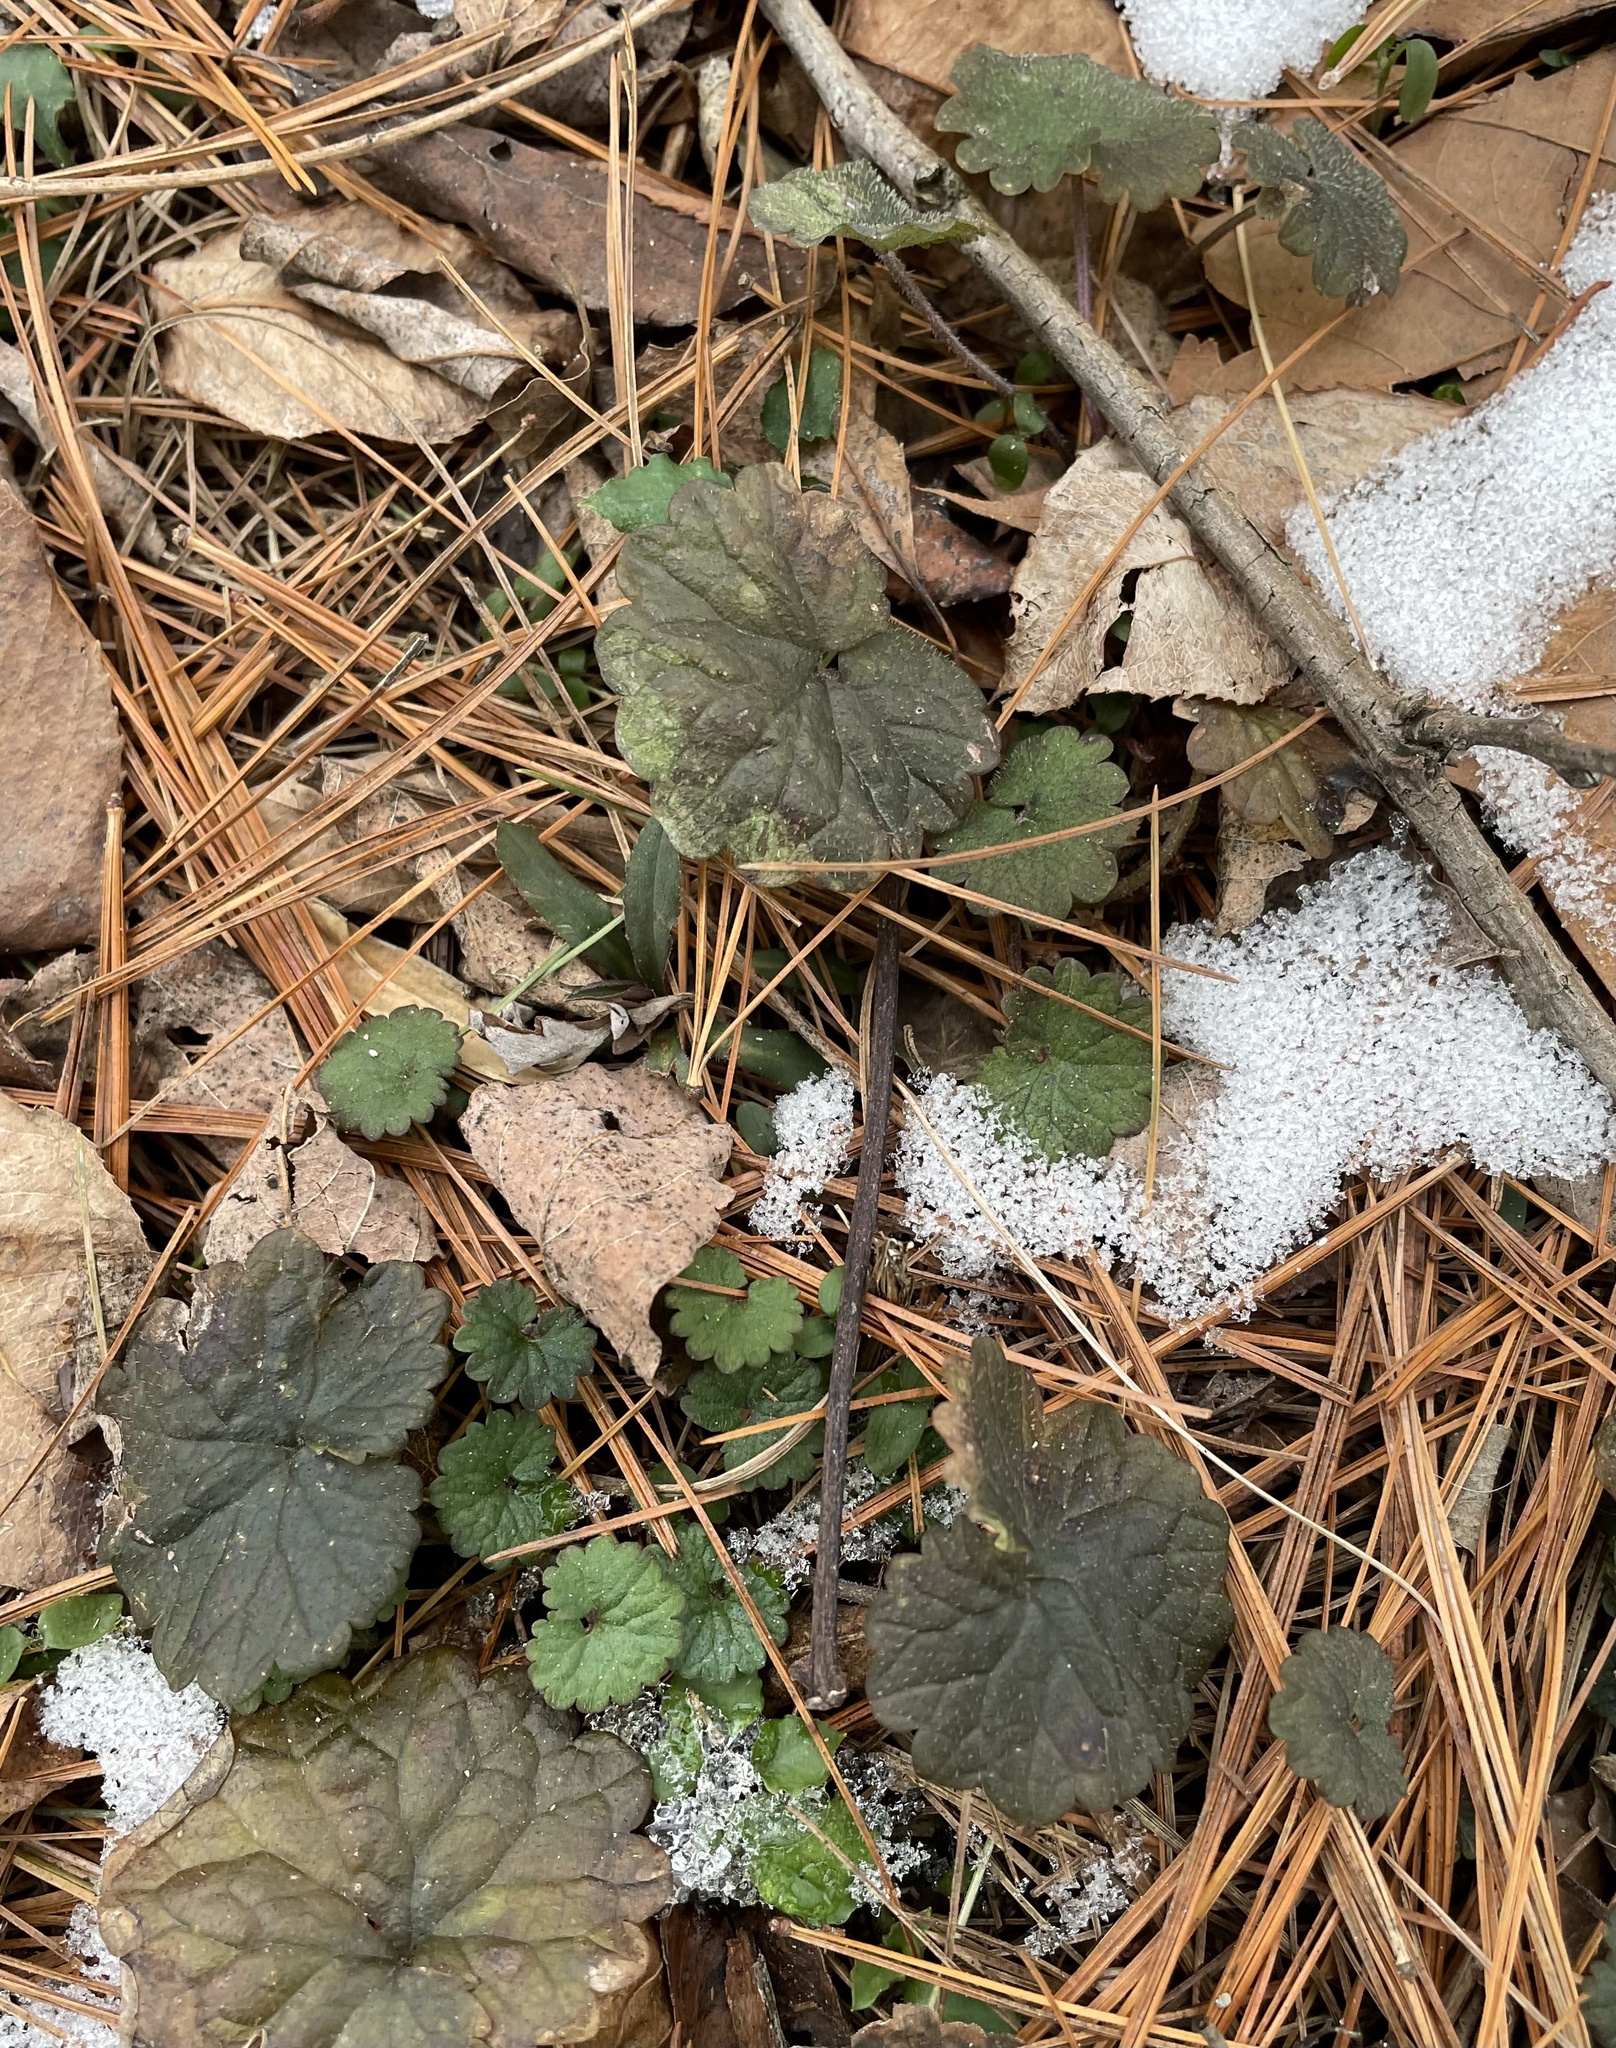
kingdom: Plantae
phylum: Tracheophyta
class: Magnoliopsida
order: Lamiales
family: Lamiaceae
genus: Glechoma
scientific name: Glechoma hederacea
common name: Ground ivy
